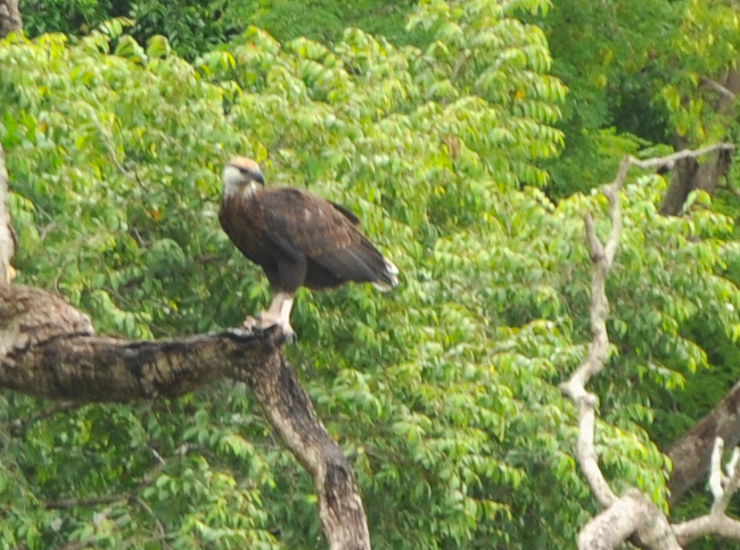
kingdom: Animalia
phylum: Chordata
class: Aves
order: Accipitriformes
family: Accipitridae
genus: Haliaeetus
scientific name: Haliaeetus vociferoides
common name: Madagascar fish eagle
